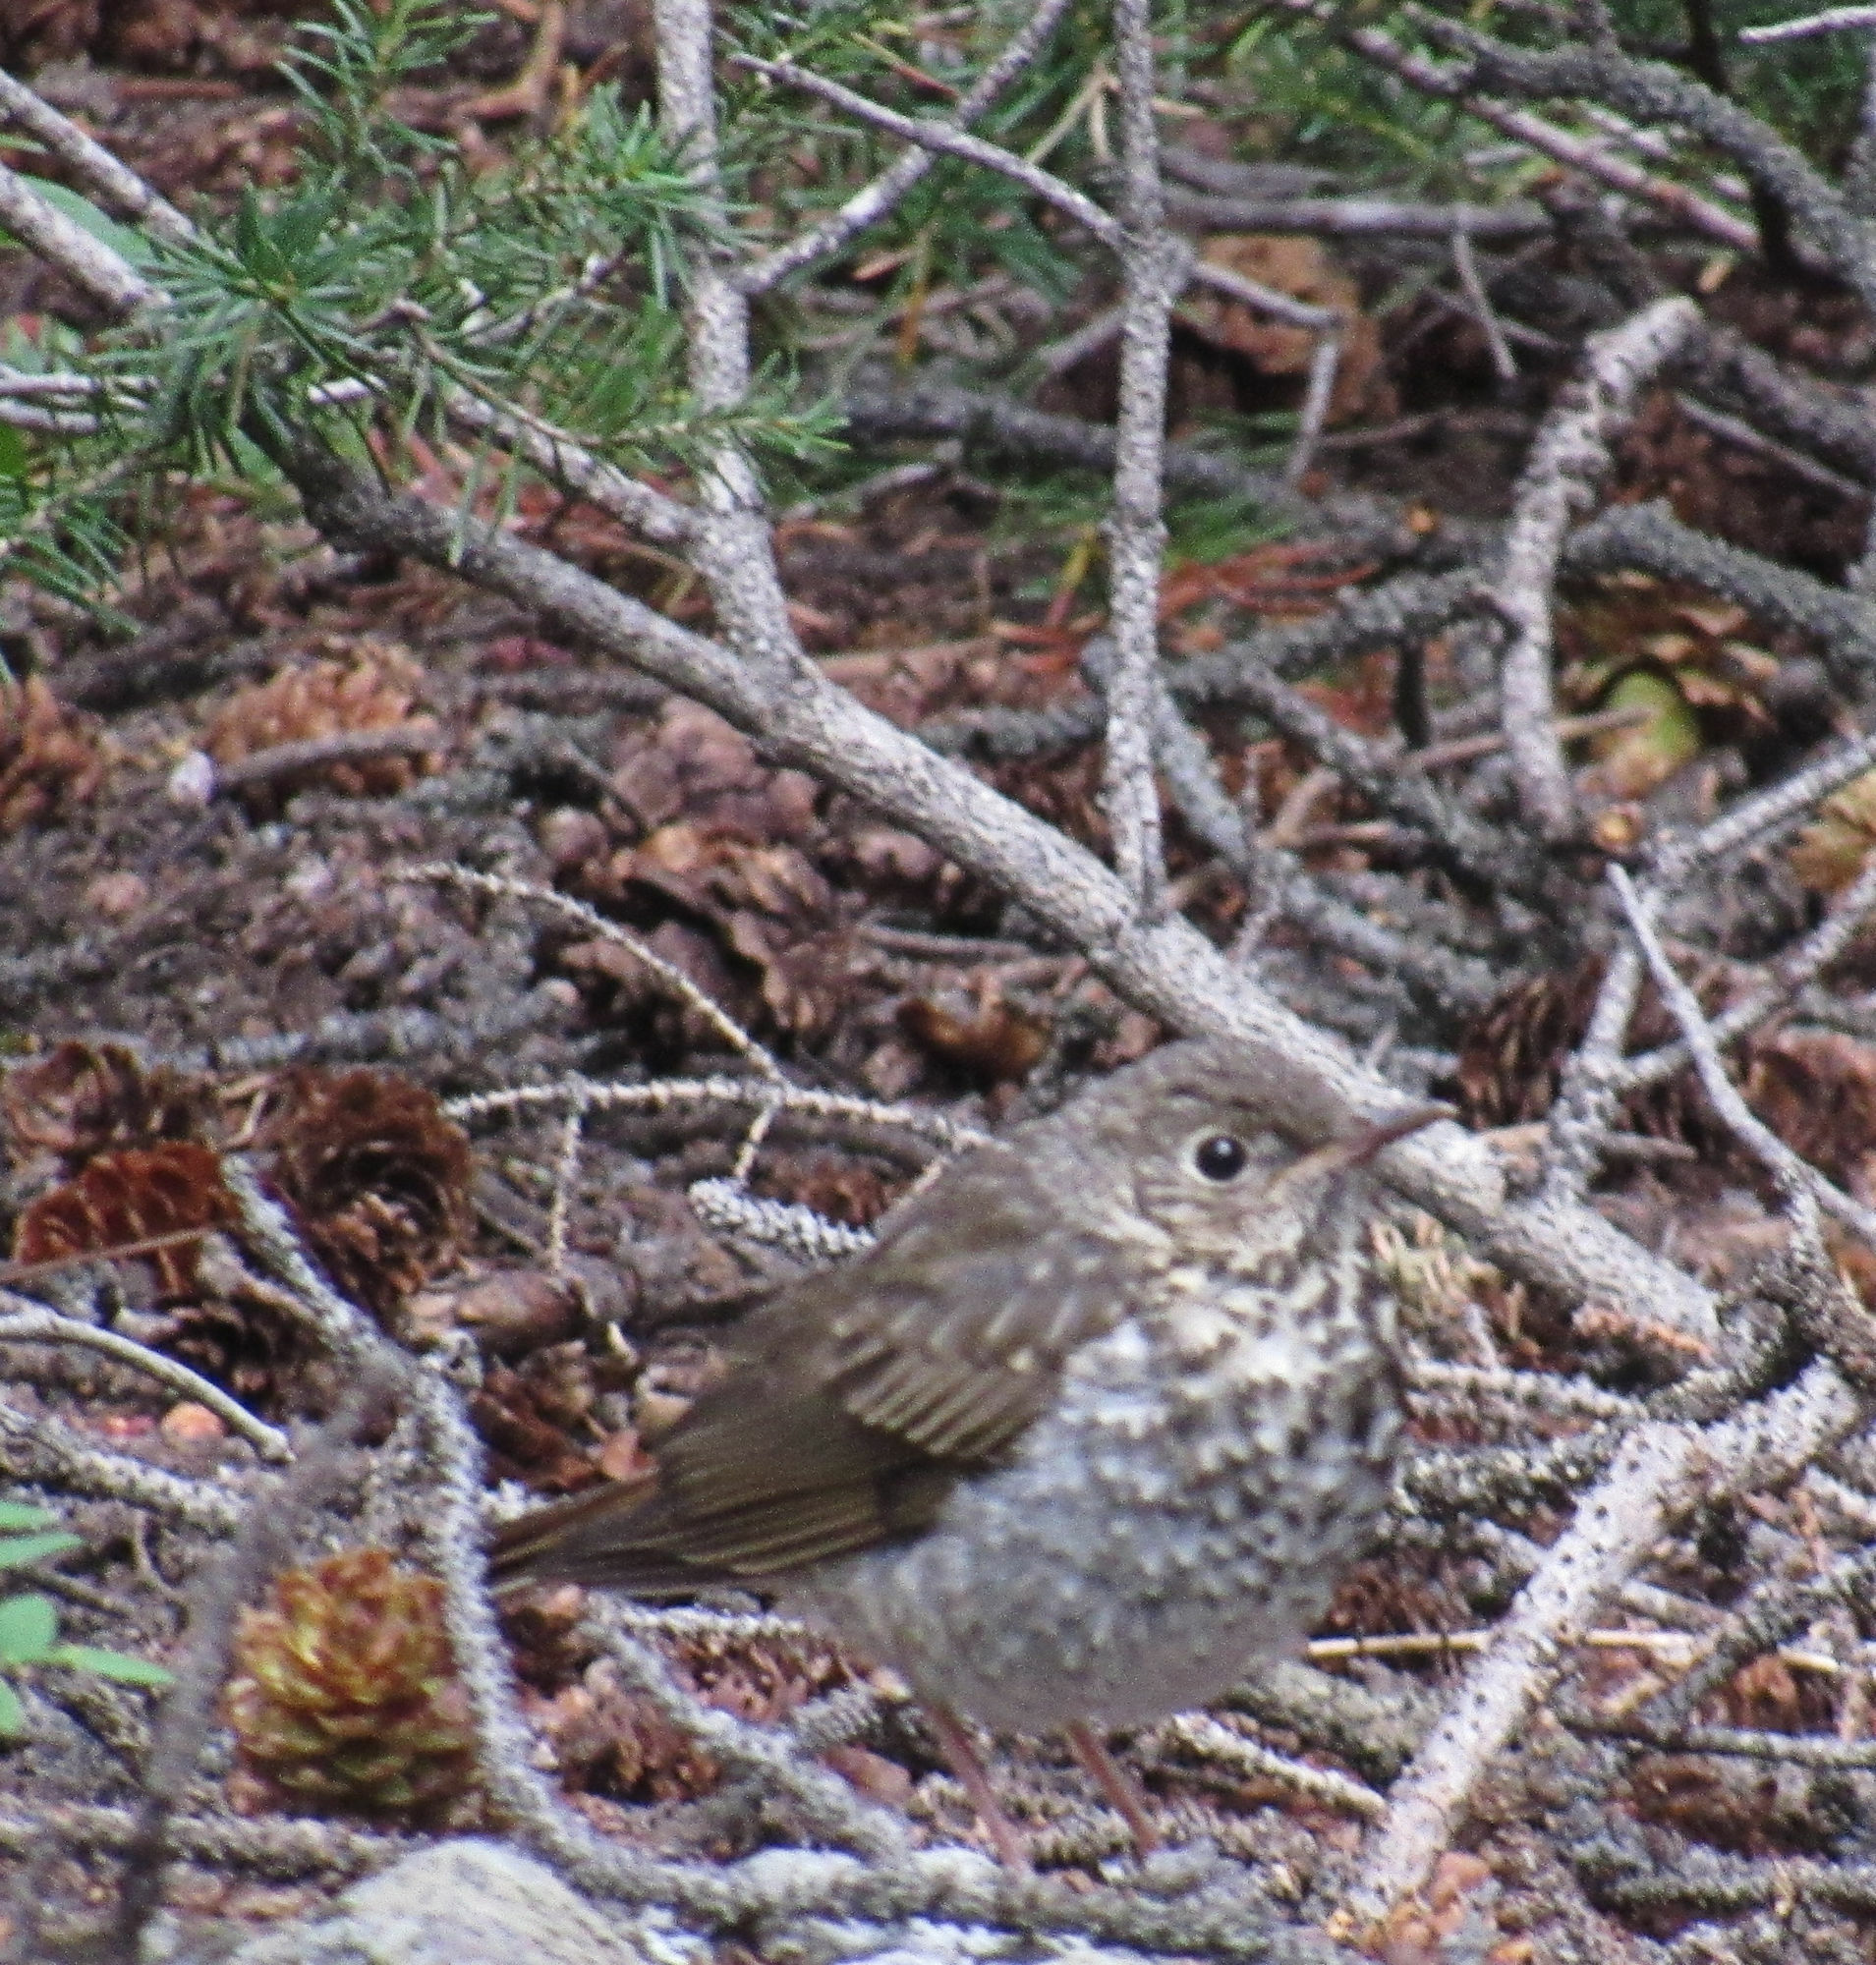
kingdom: Animalia
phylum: Chordata
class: Aves
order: Passeriformes
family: Turdidae
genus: Catharus
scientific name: Catharus guttatus
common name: Hermit thrush
